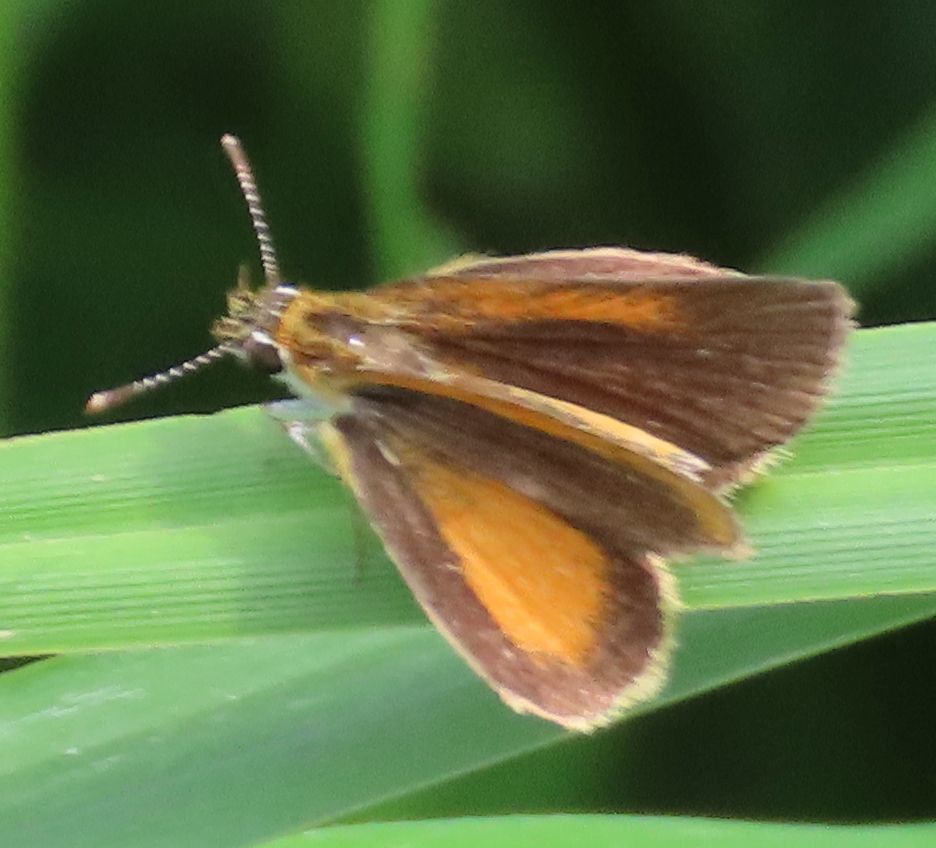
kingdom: Animalia
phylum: Arthropoda
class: Insecta
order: Lepidoptera
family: Hesperiidae
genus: Ancyloxypha
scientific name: Ancyloxypha numitor
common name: Least skipper
